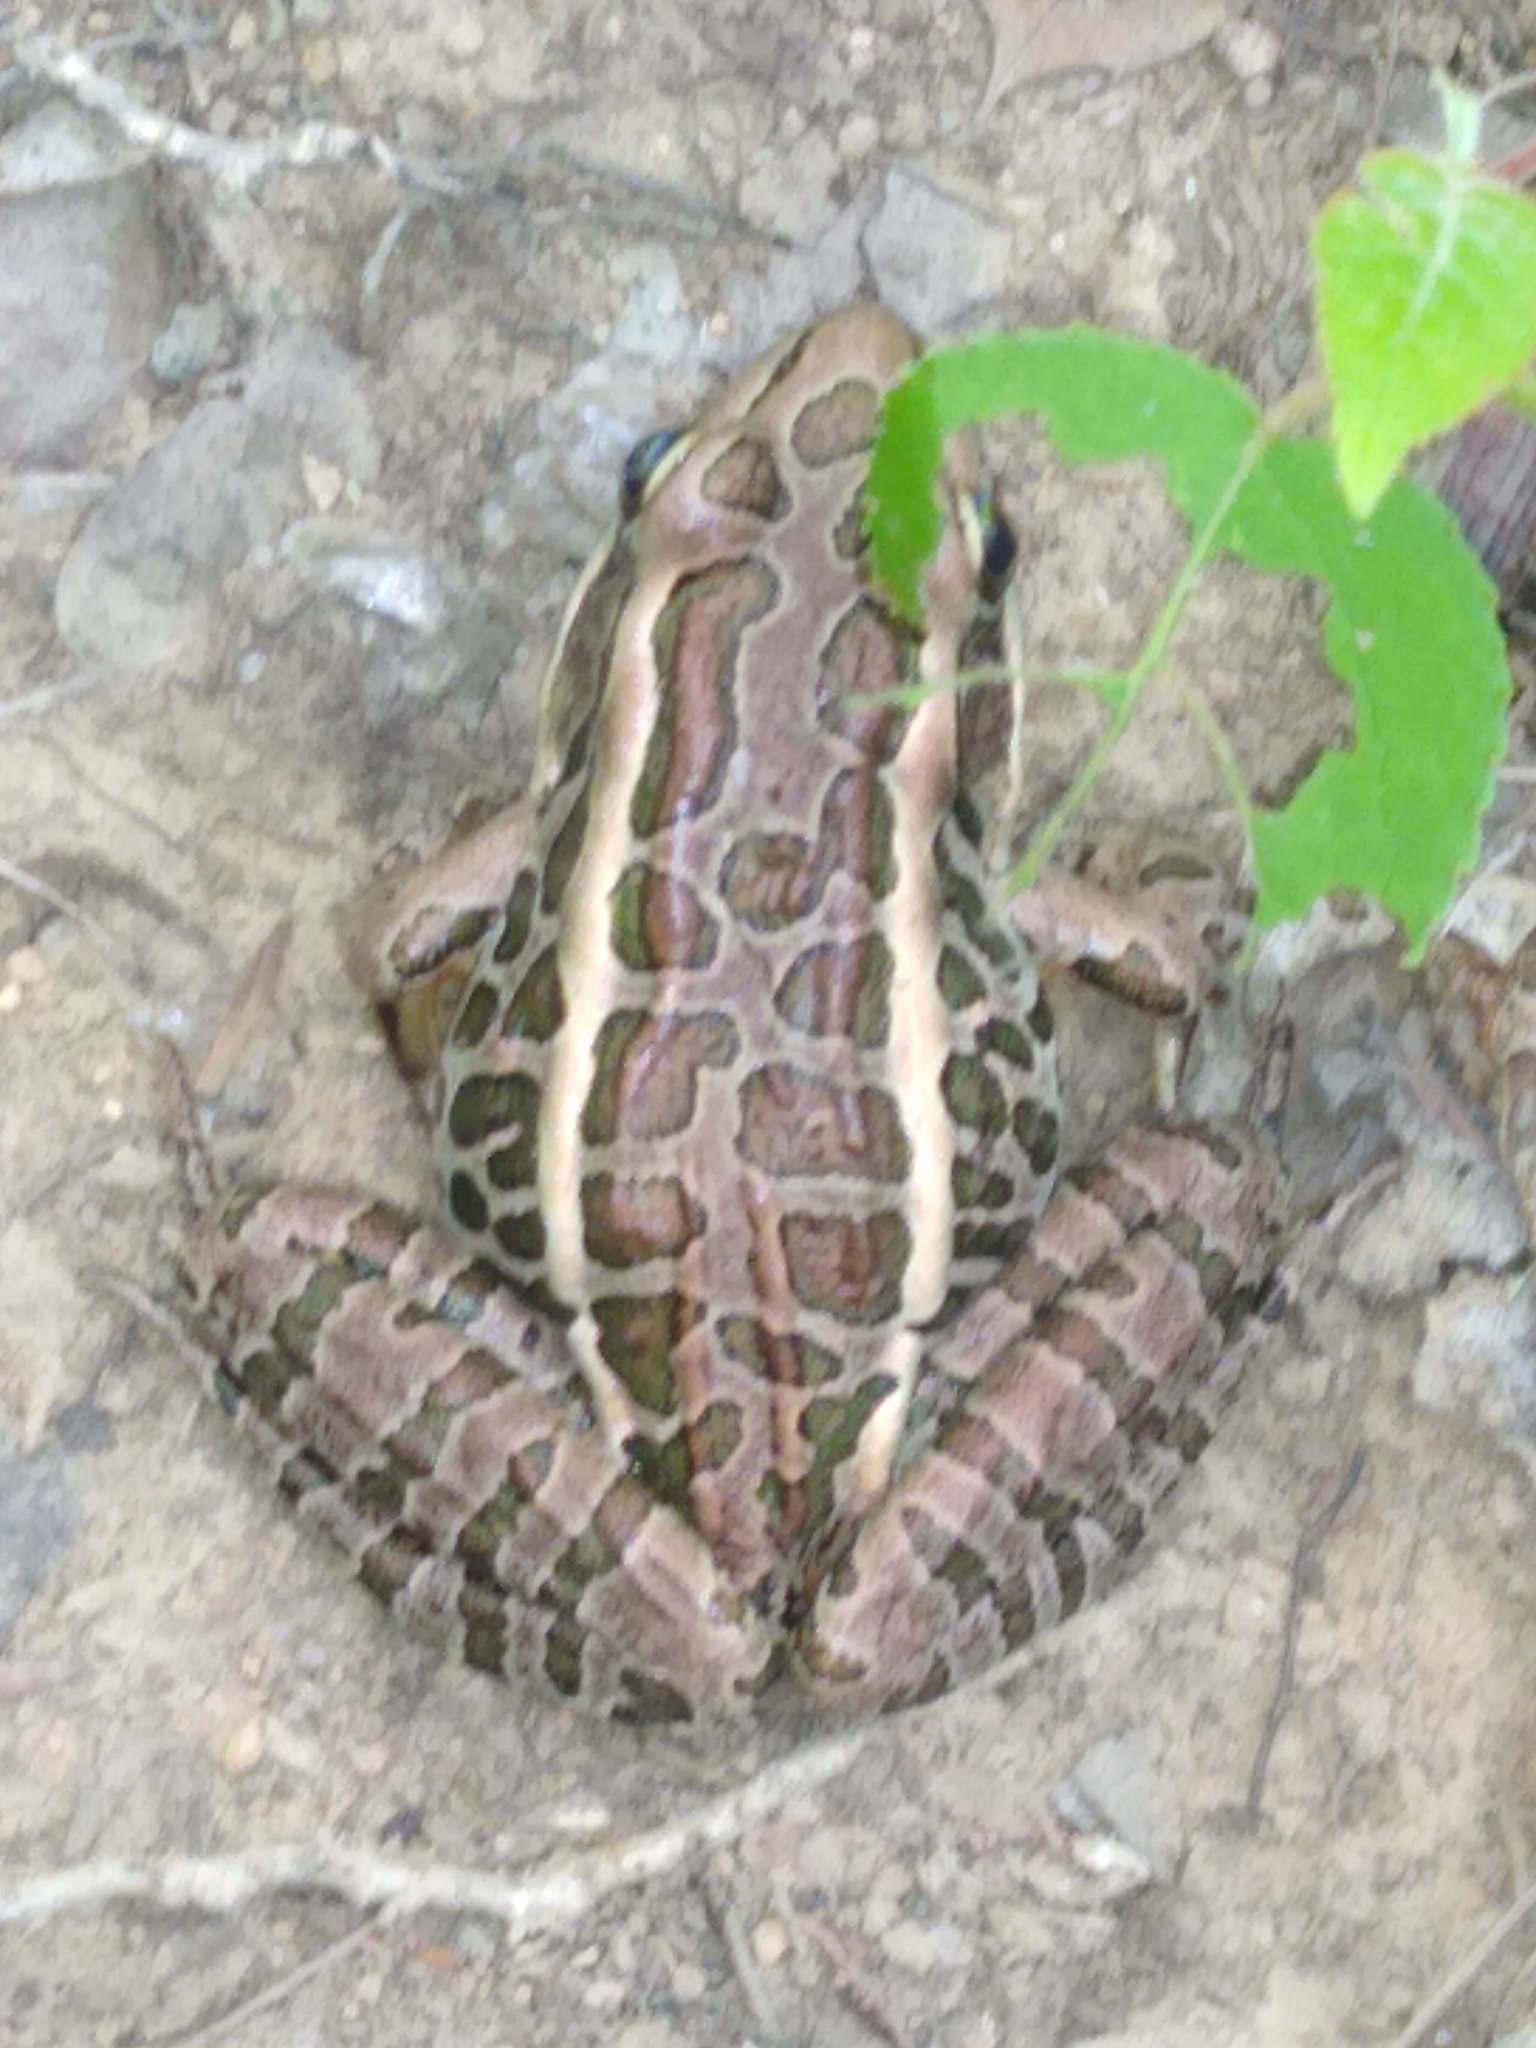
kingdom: Animalia
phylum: Chordata
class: Amphibia
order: Anura
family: Ranidae
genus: Lithobates
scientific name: Lithobates palustris
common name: Pickerel frog
